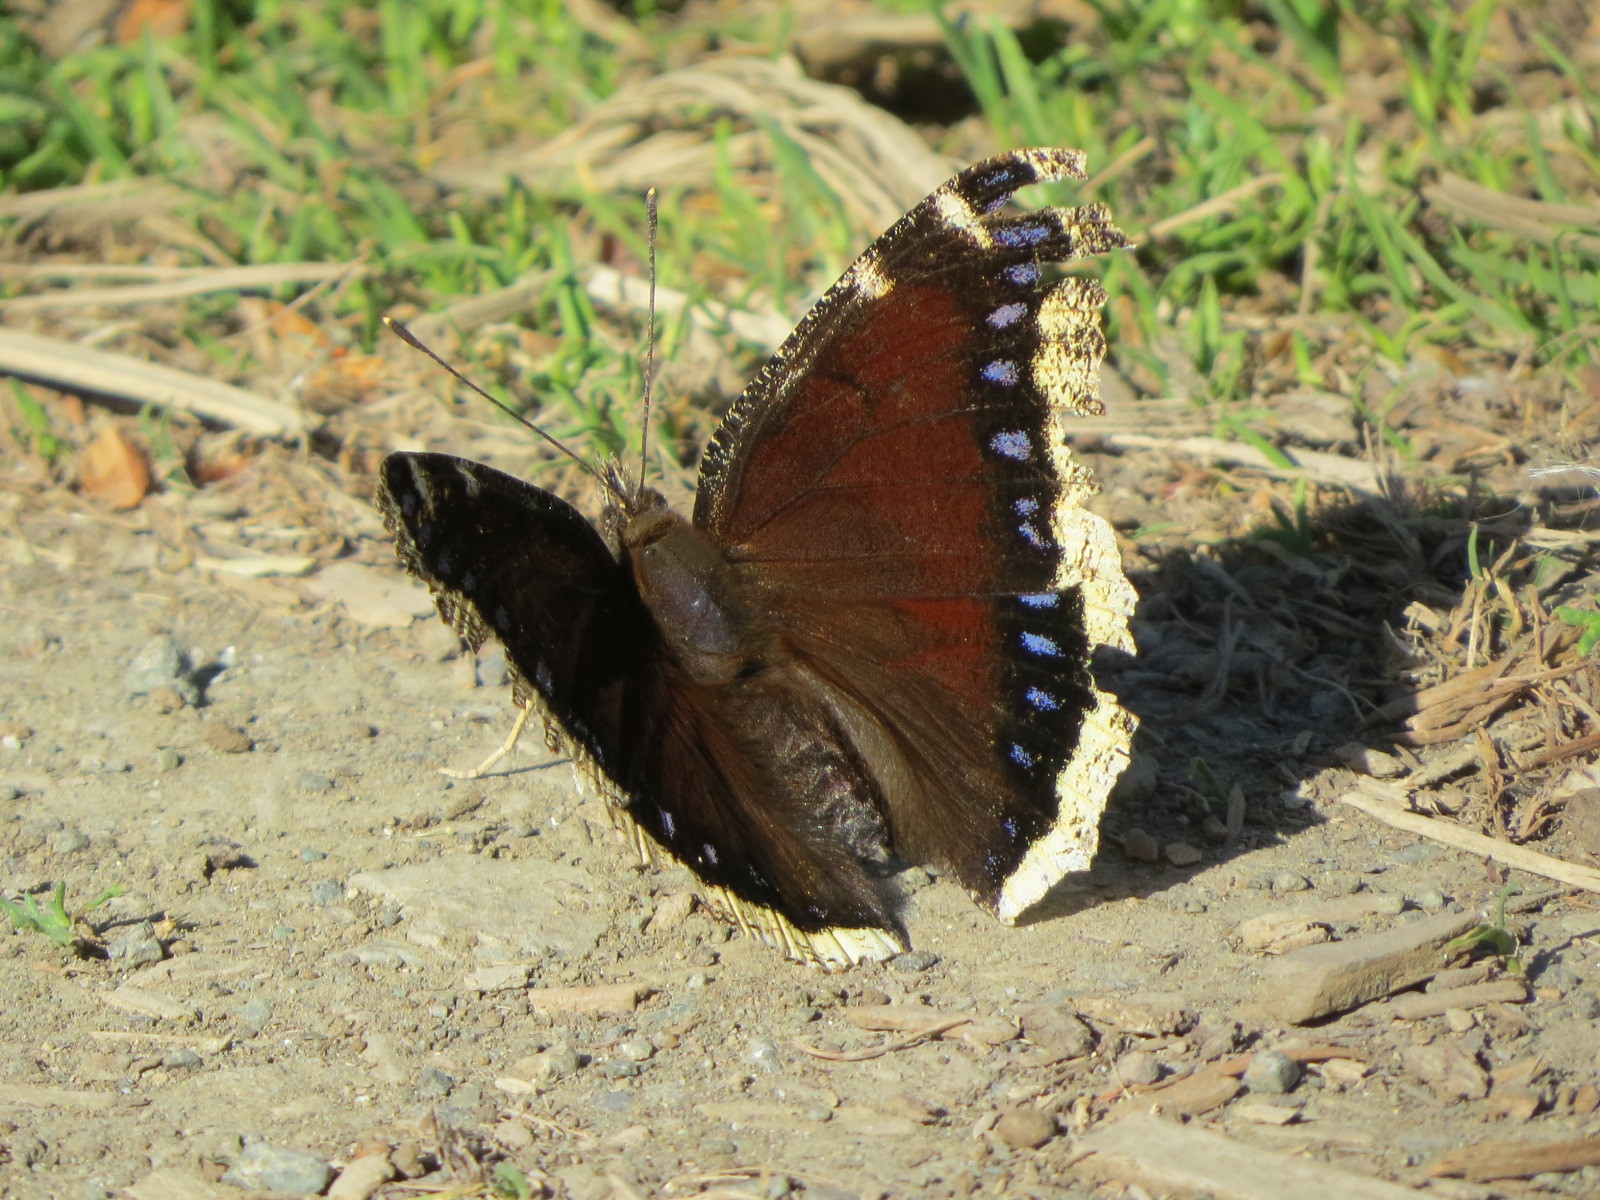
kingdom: Animalia
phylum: Arthropoda
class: Insecta
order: Lepidoptera
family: Nymphalidae
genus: Nymphalis
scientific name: Nymphalis antiopa
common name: Camberwell beauty
